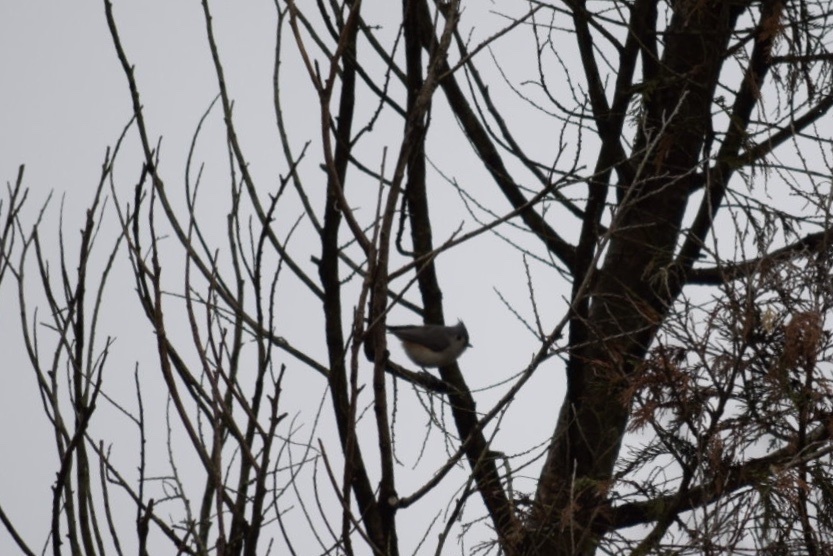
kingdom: Animalia
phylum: Chordata
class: Aves
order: Passeriformes
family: Paridae
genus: Baeolophus
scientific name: Baeolophus bicolor
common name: Tufted titmouse
